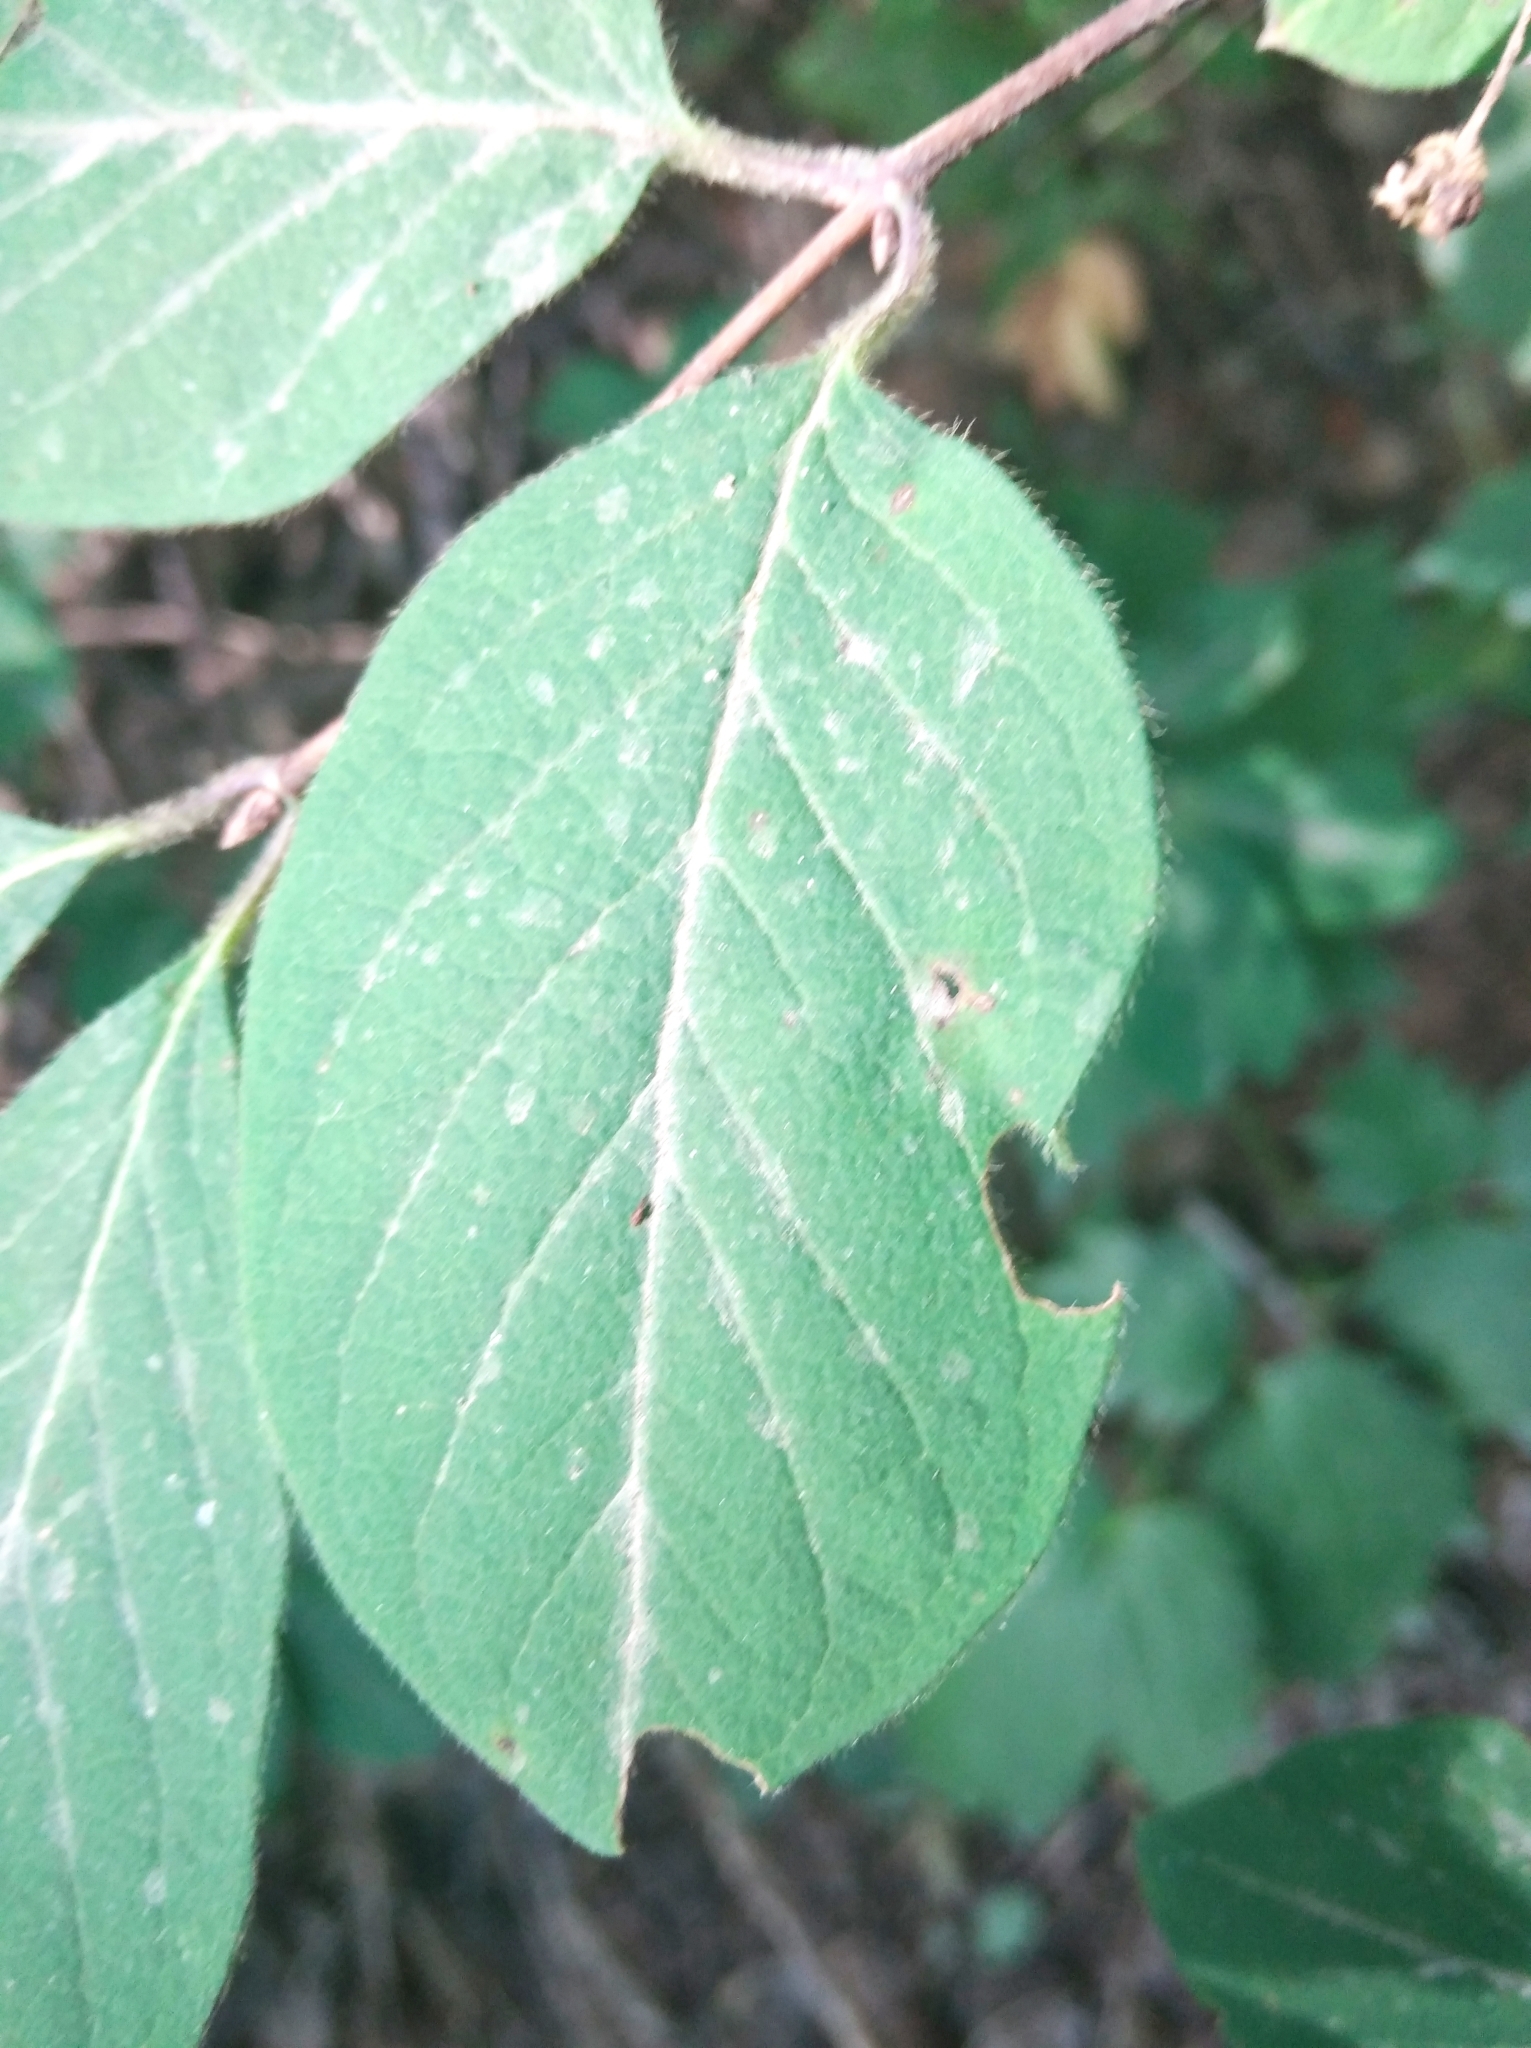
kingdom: Plantae
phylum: Tracheophyta
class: Magnoliopsida
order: Dipsacales
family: Caprifoliaceae
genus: Lonicera
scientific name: Lonicera xylosteum
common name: Fly honeysuckle
